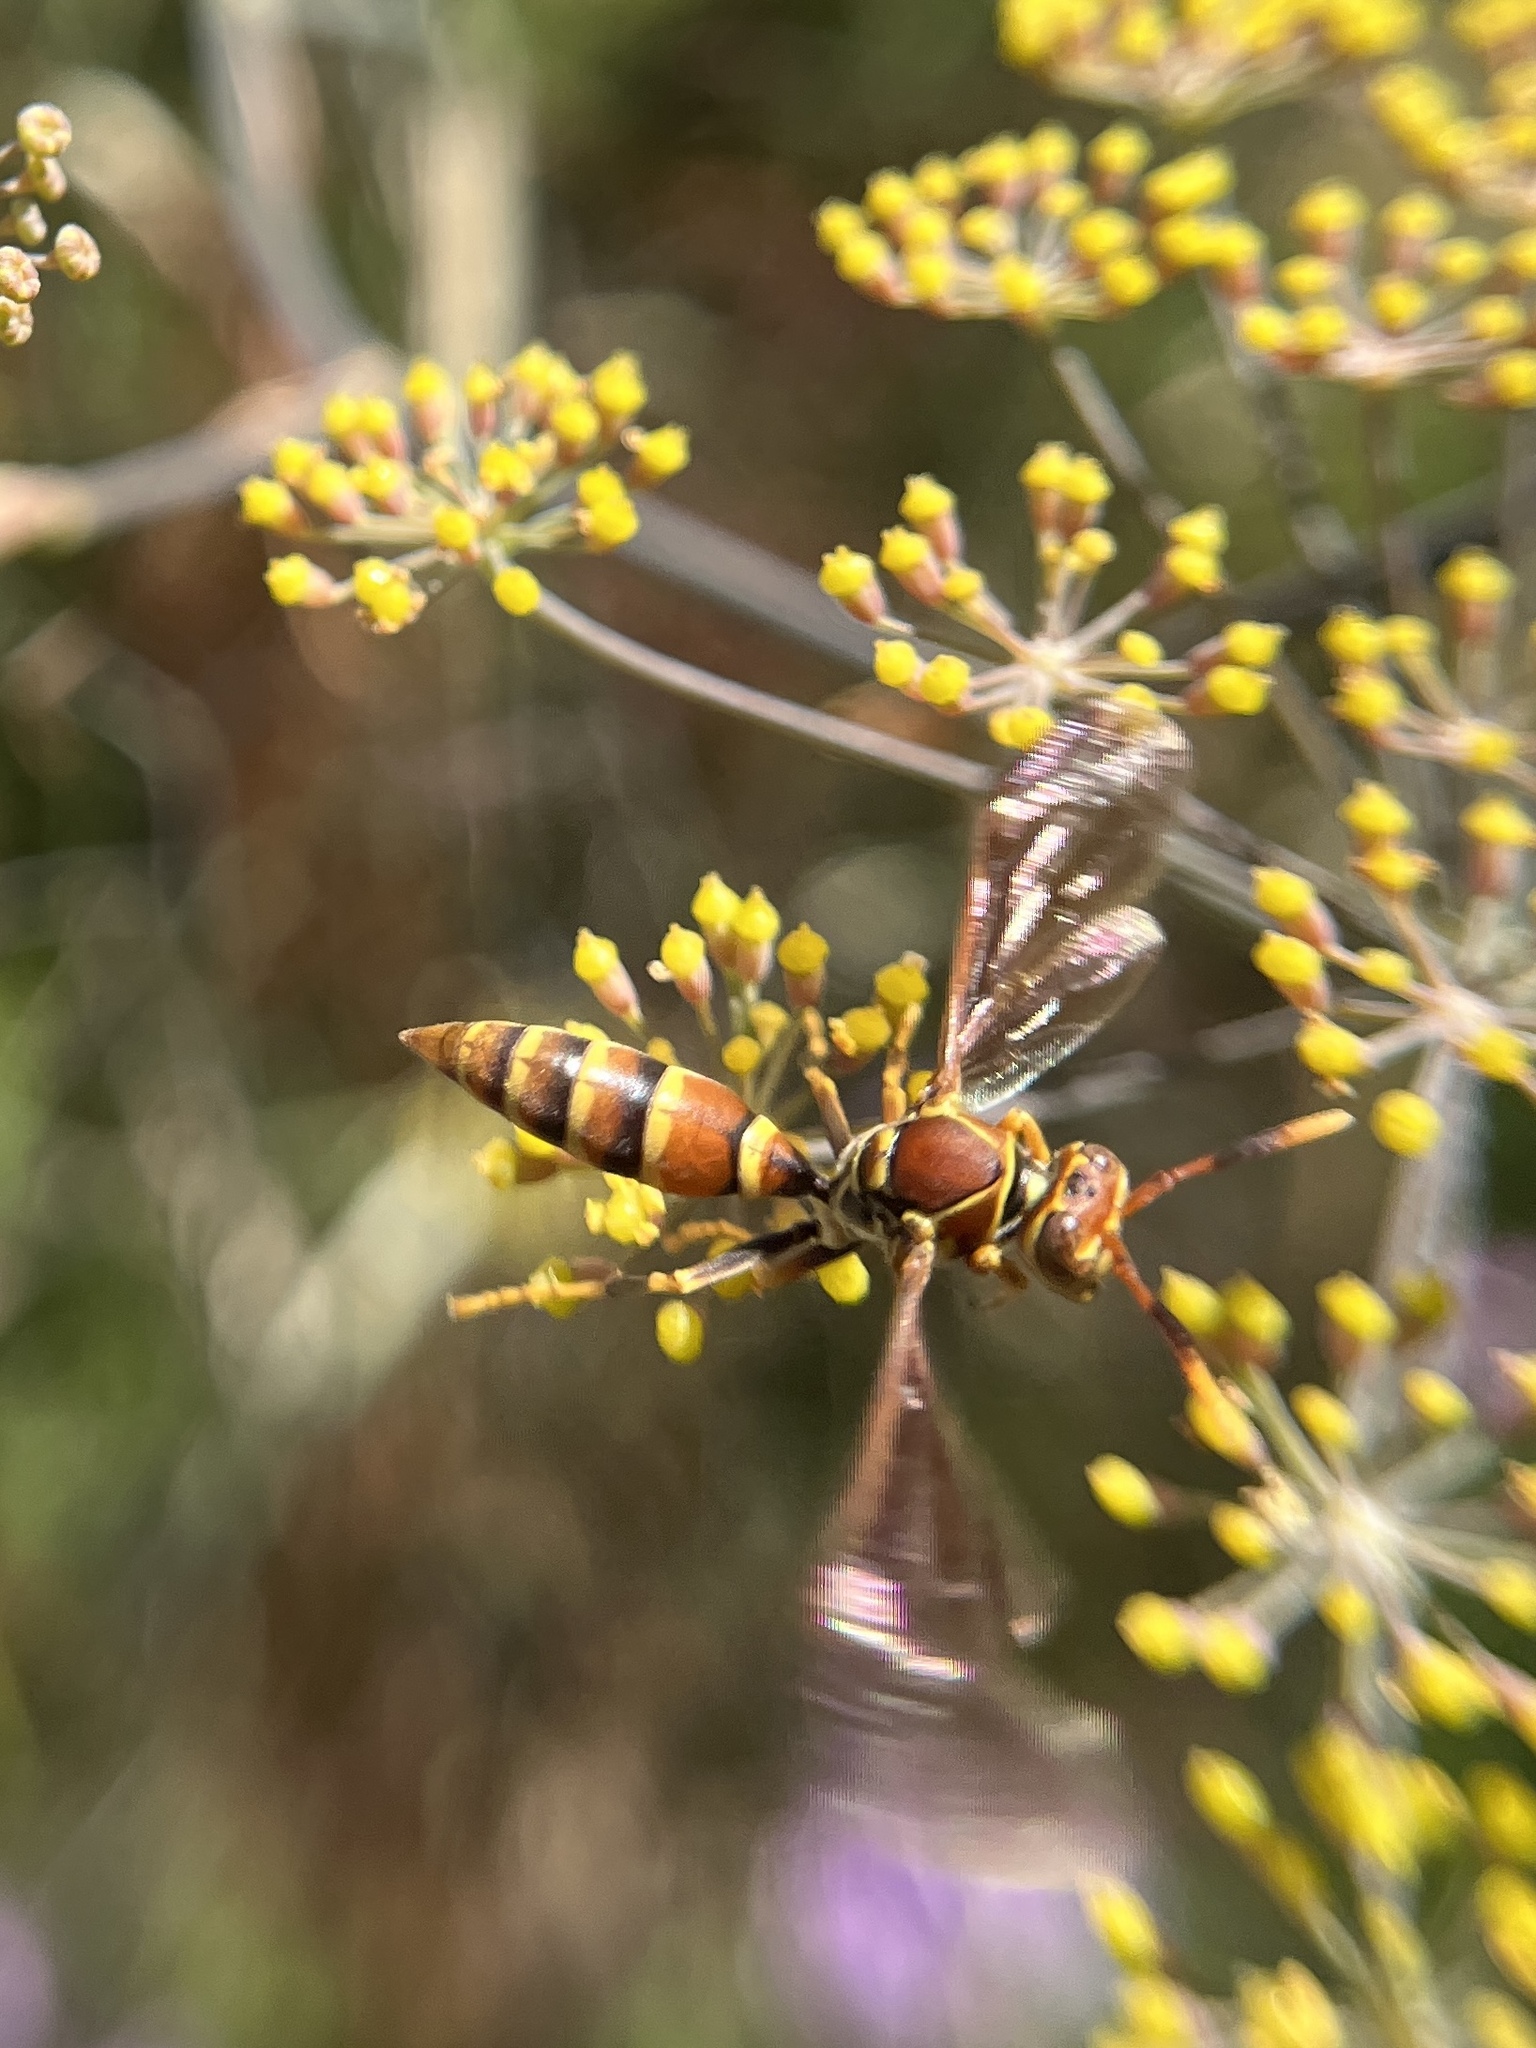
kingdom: Animalia
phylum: Arthropoda
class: Insecta
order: Hymenoptera
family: Eumenidae
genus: Polistes
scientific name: Polistes exclamans
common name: Paper wasp
